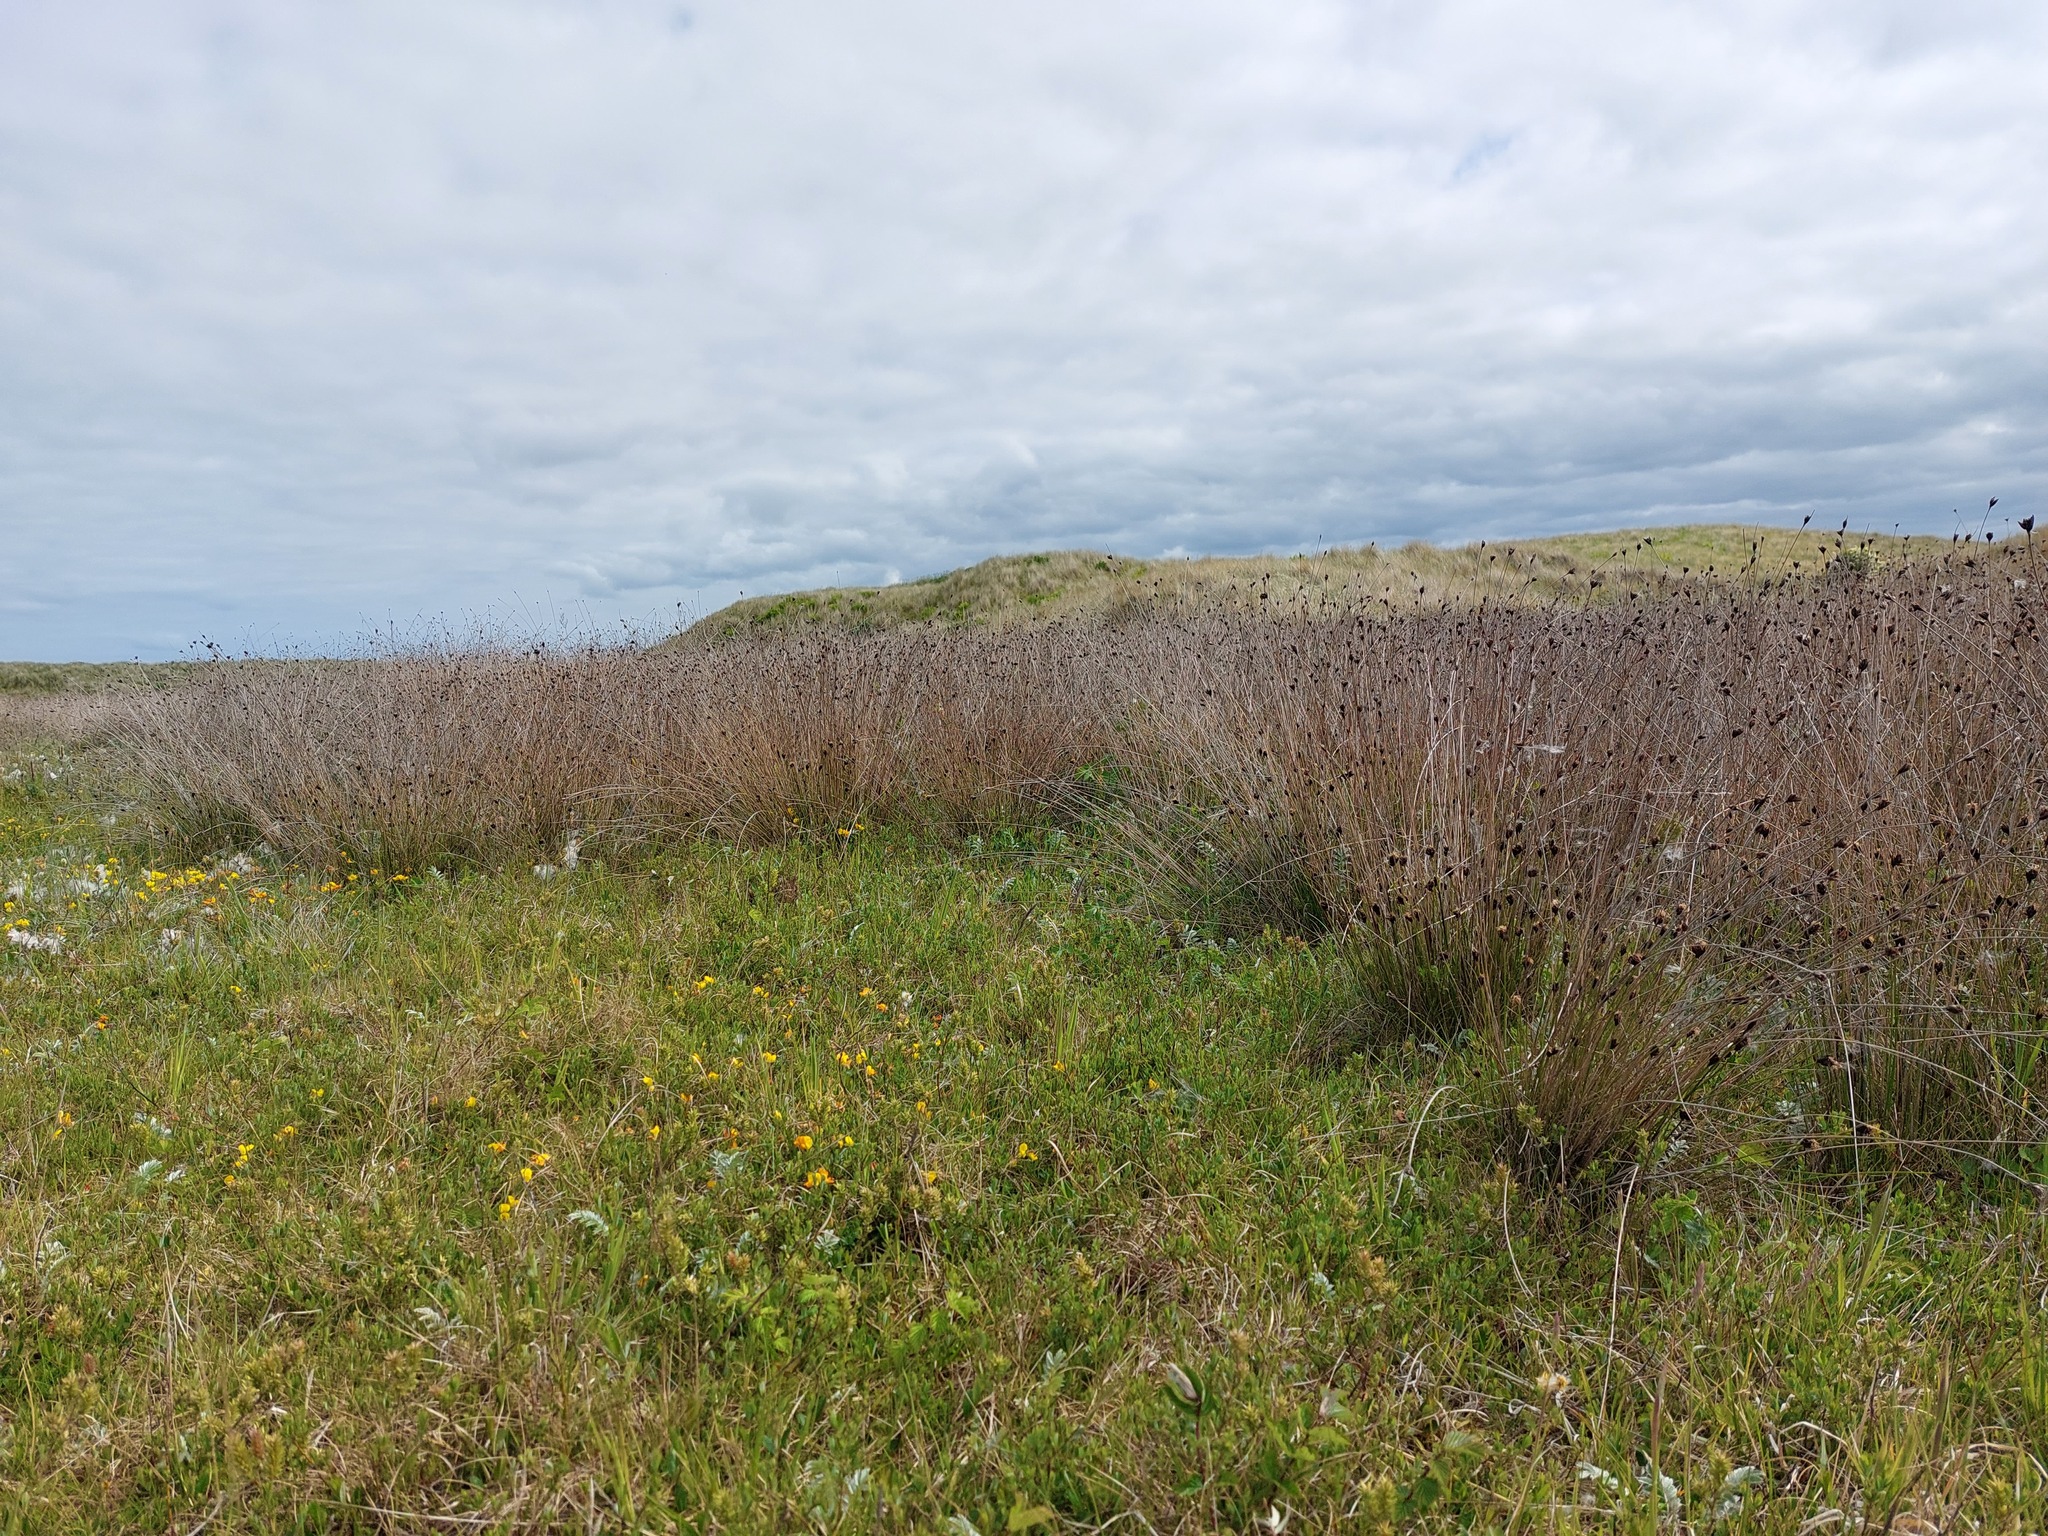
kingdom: Plantae
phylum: Tracheophyta
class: Liliopsida
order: Poales
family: Cyperaceae
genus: Schoenus
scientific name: Schoenus nigricans
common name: Black bog-rush
